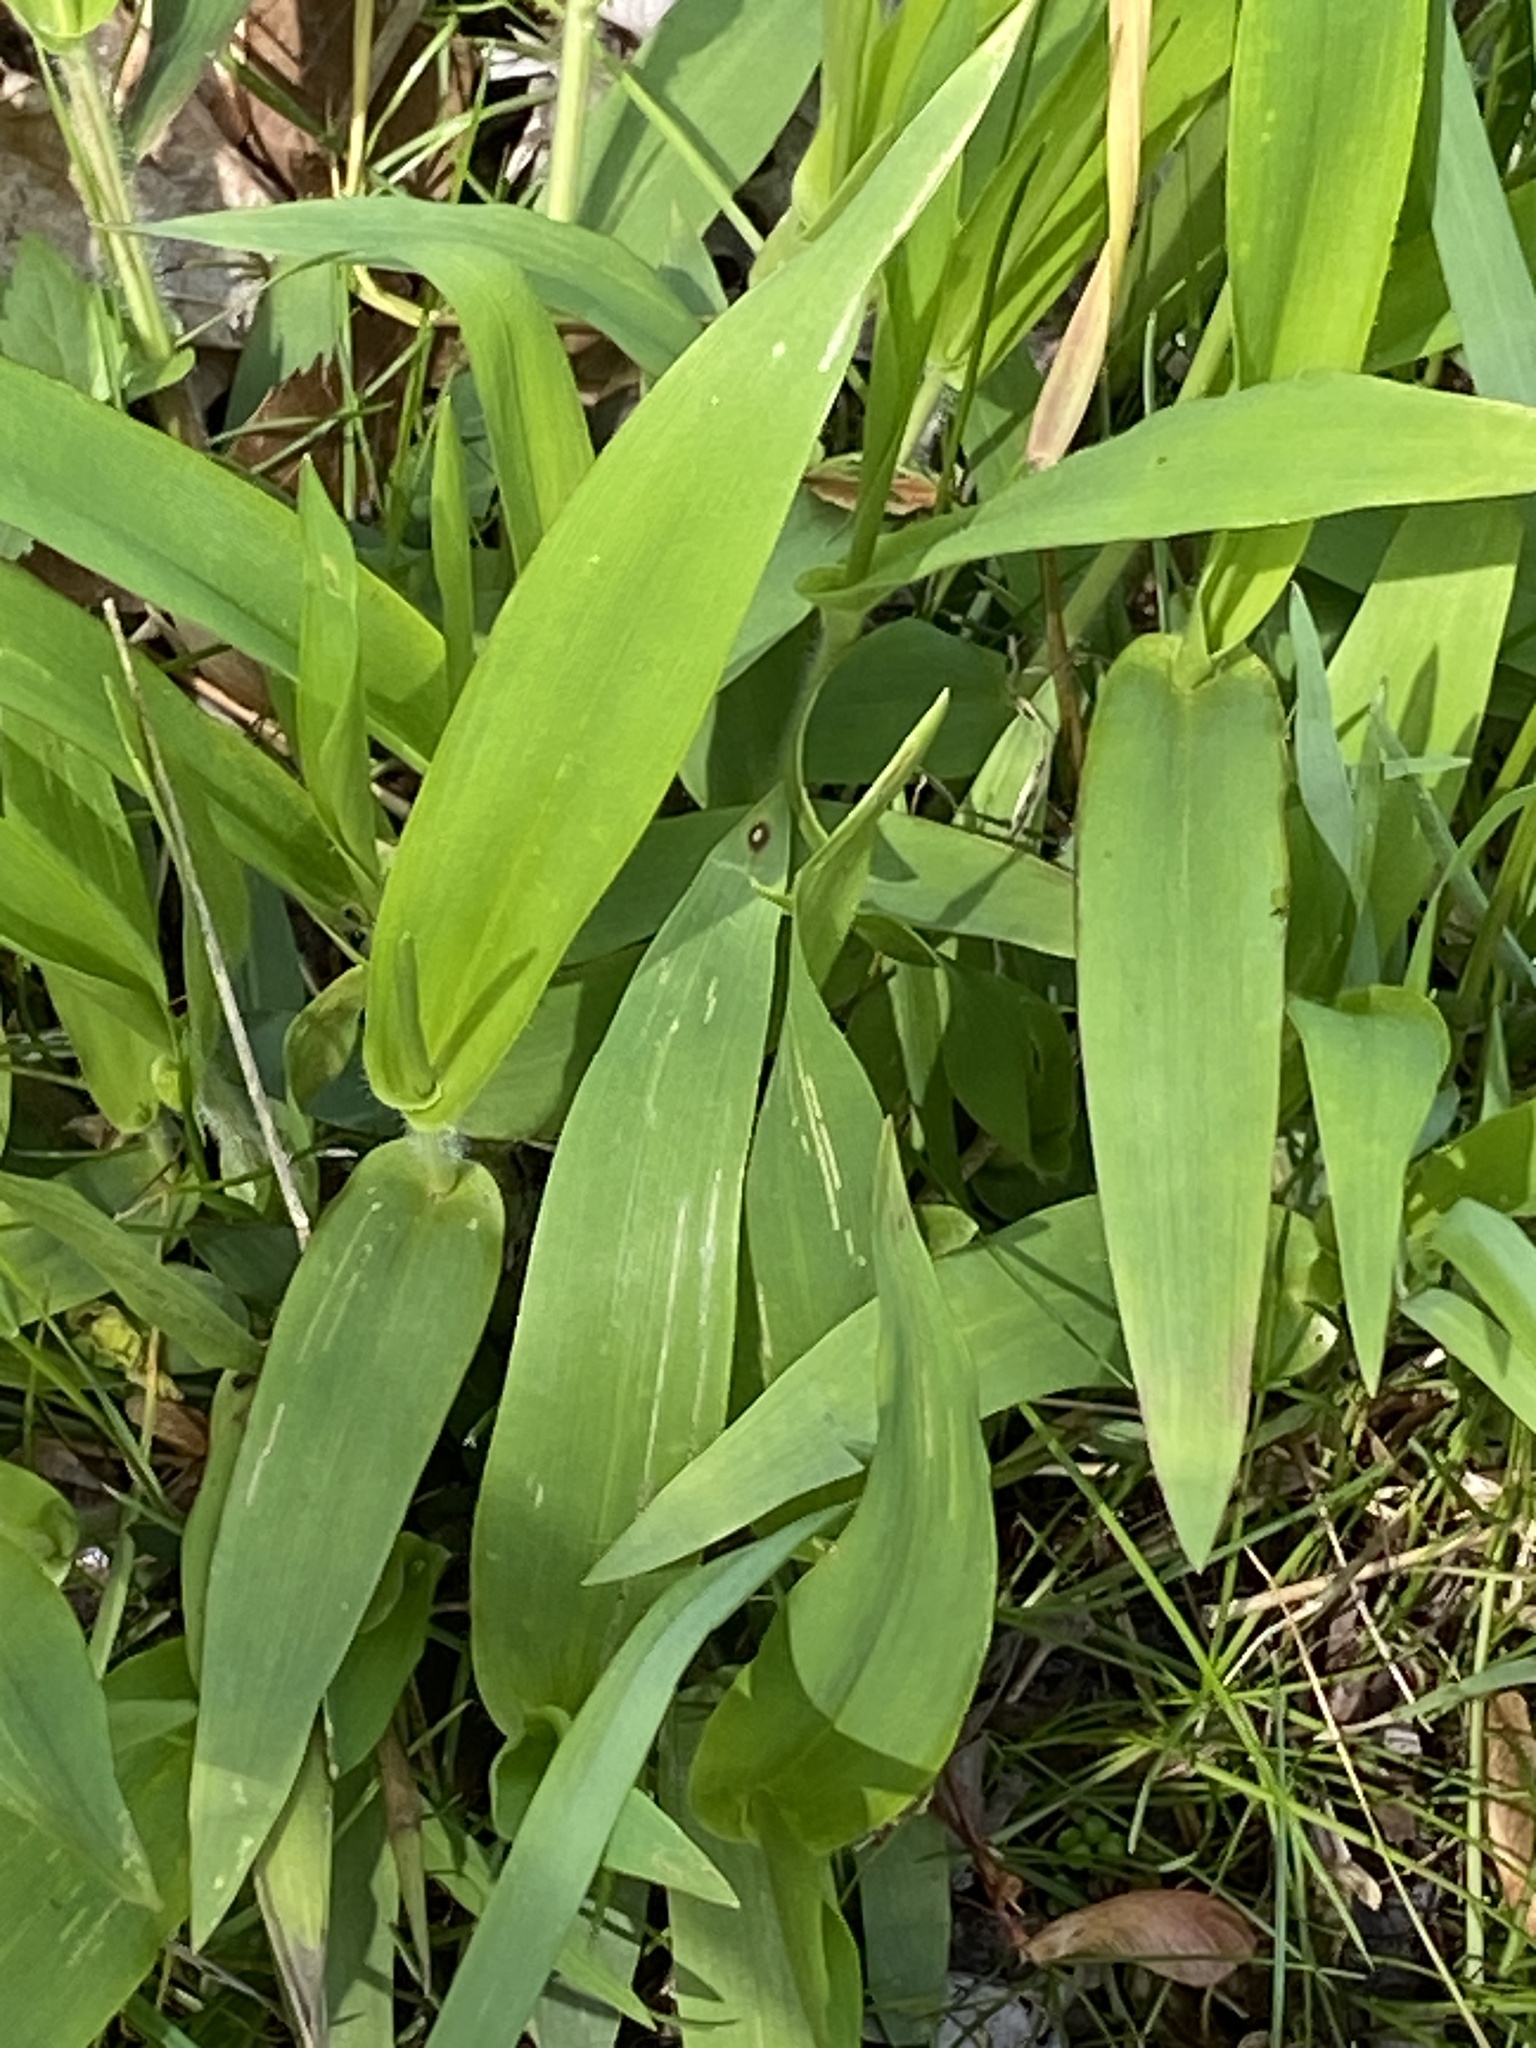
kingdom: Plantae
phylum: Tracheophyta
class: Liliopsida
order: Poales
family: Poaceae
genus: Dichanthelium
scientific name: Dichanthelium clandestinum
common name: Deer-tongue grass
